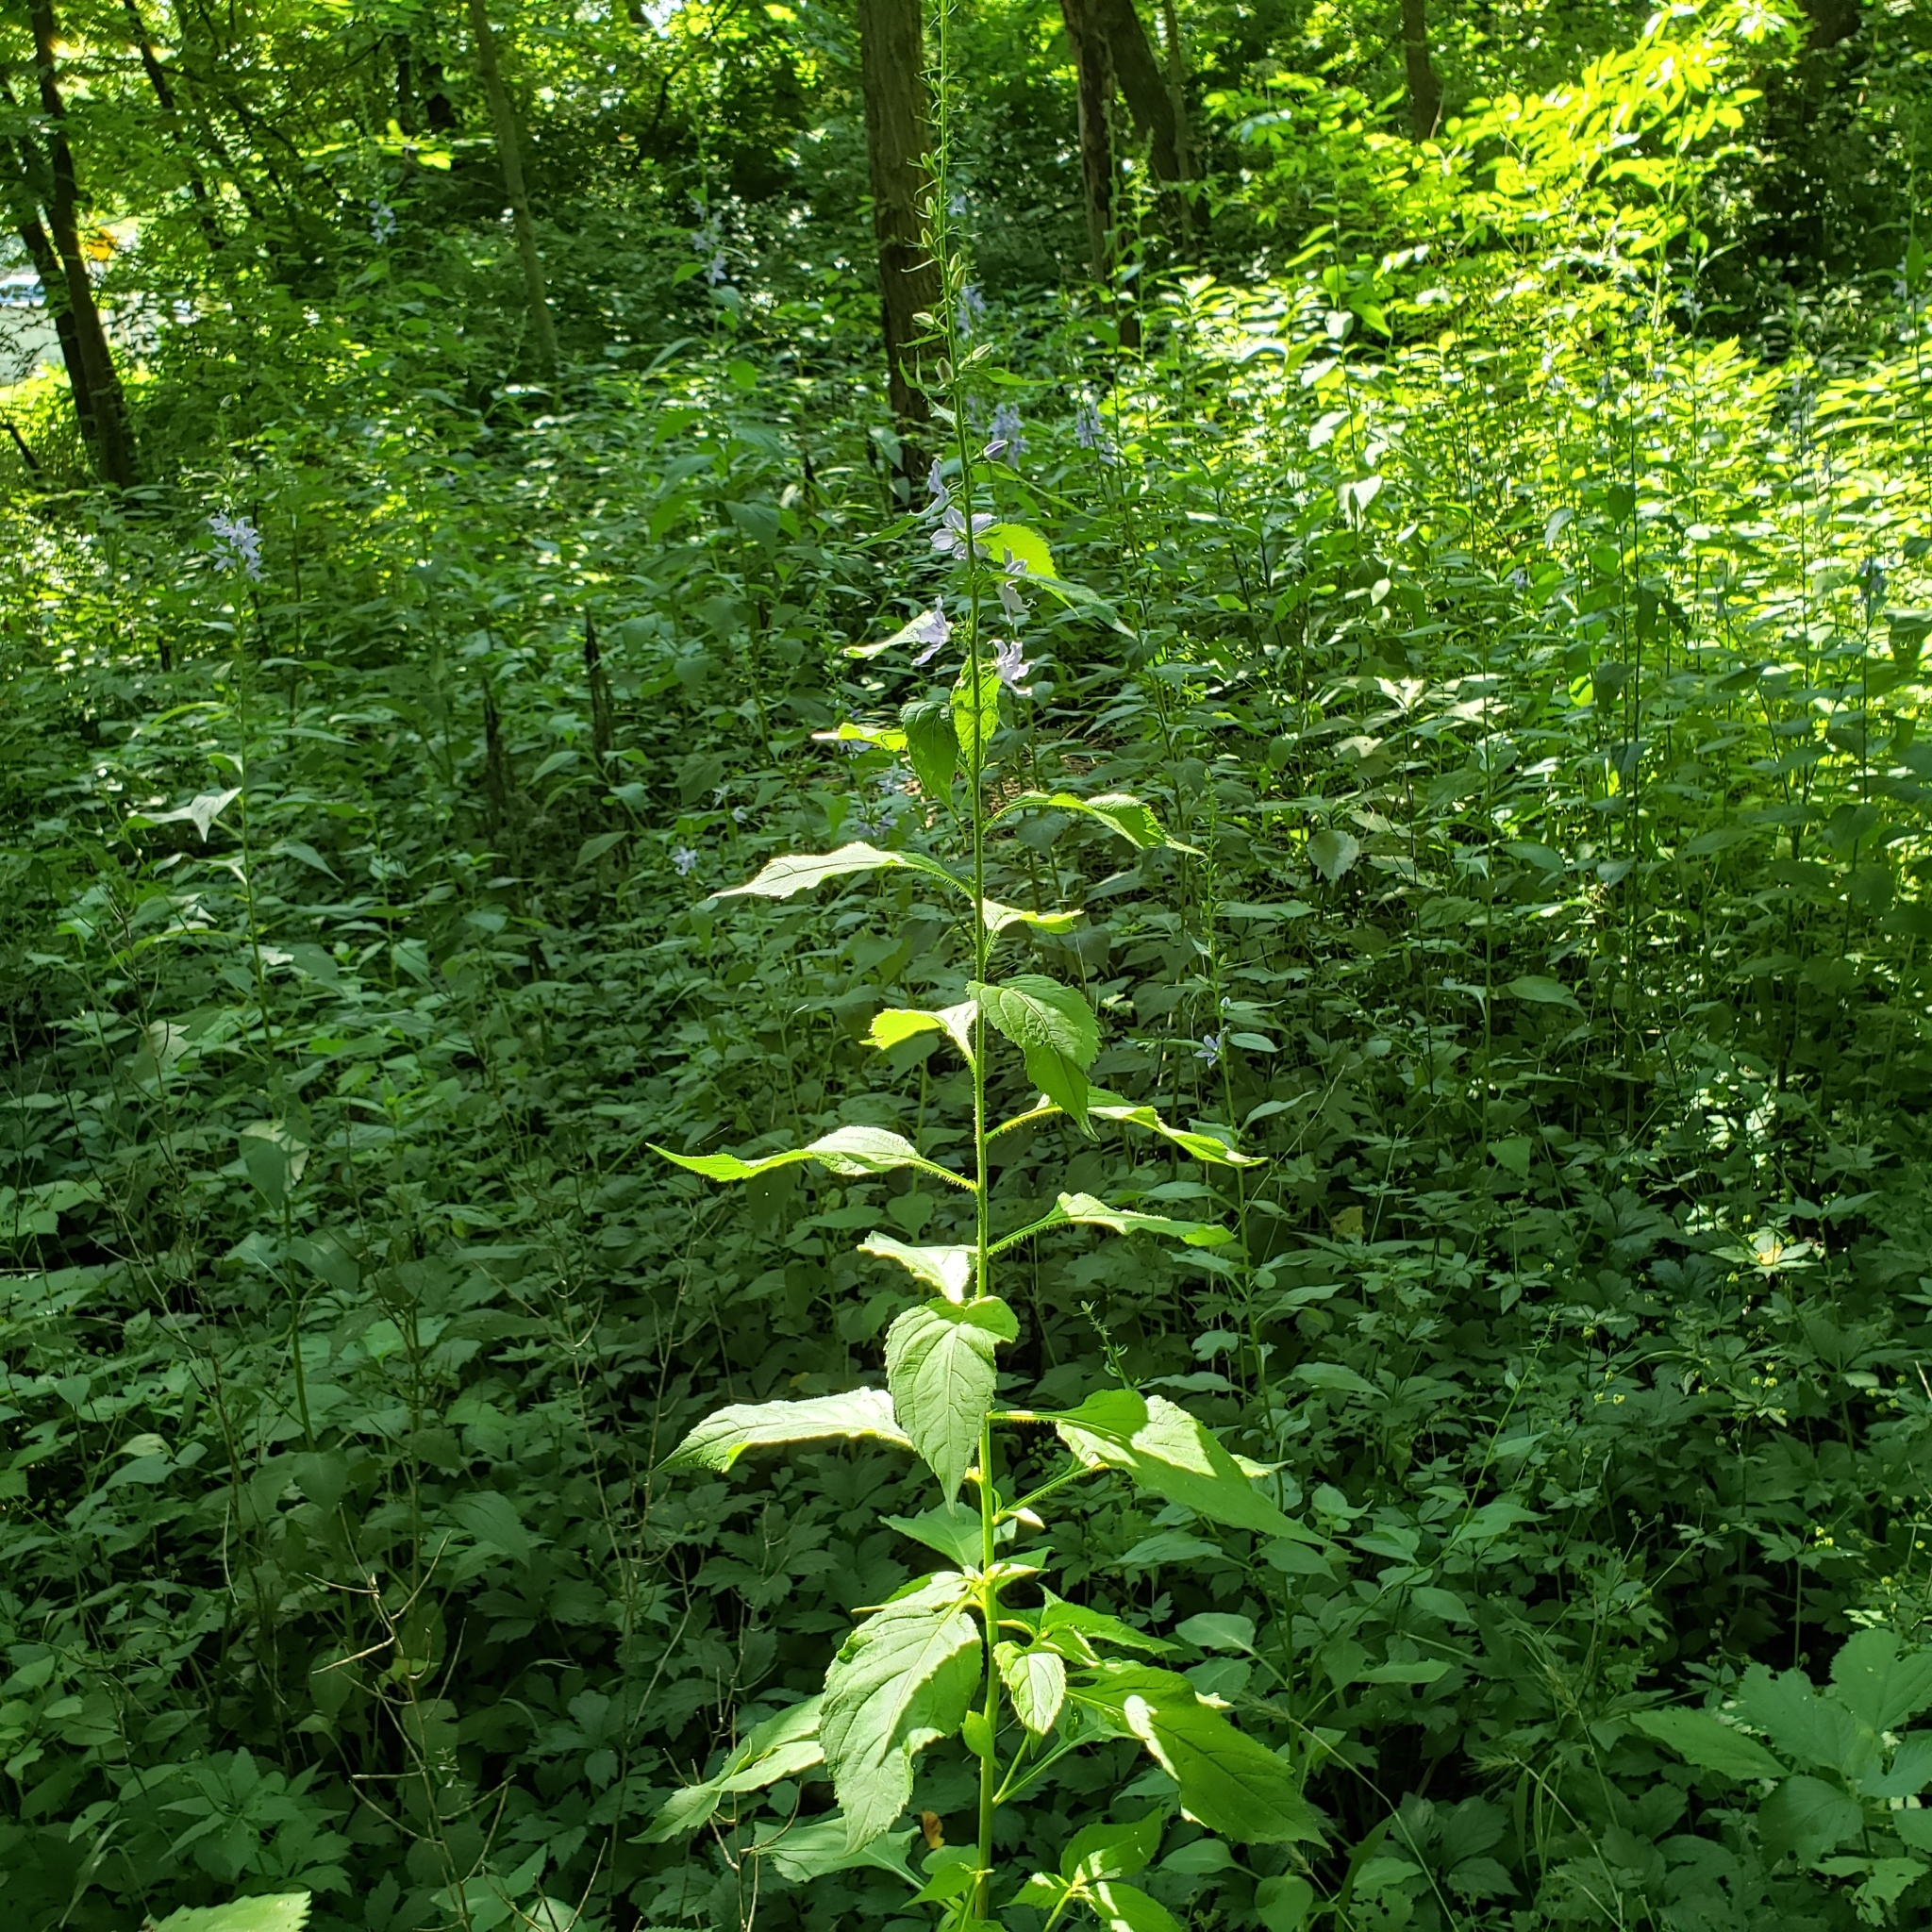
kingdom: Plantae
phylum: Tracheophyta
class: Magnoliopsida
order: Asterales
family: Campanulaceae
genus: Campanulastrum
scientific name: Campanulastrum americanum
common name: American bellflower
